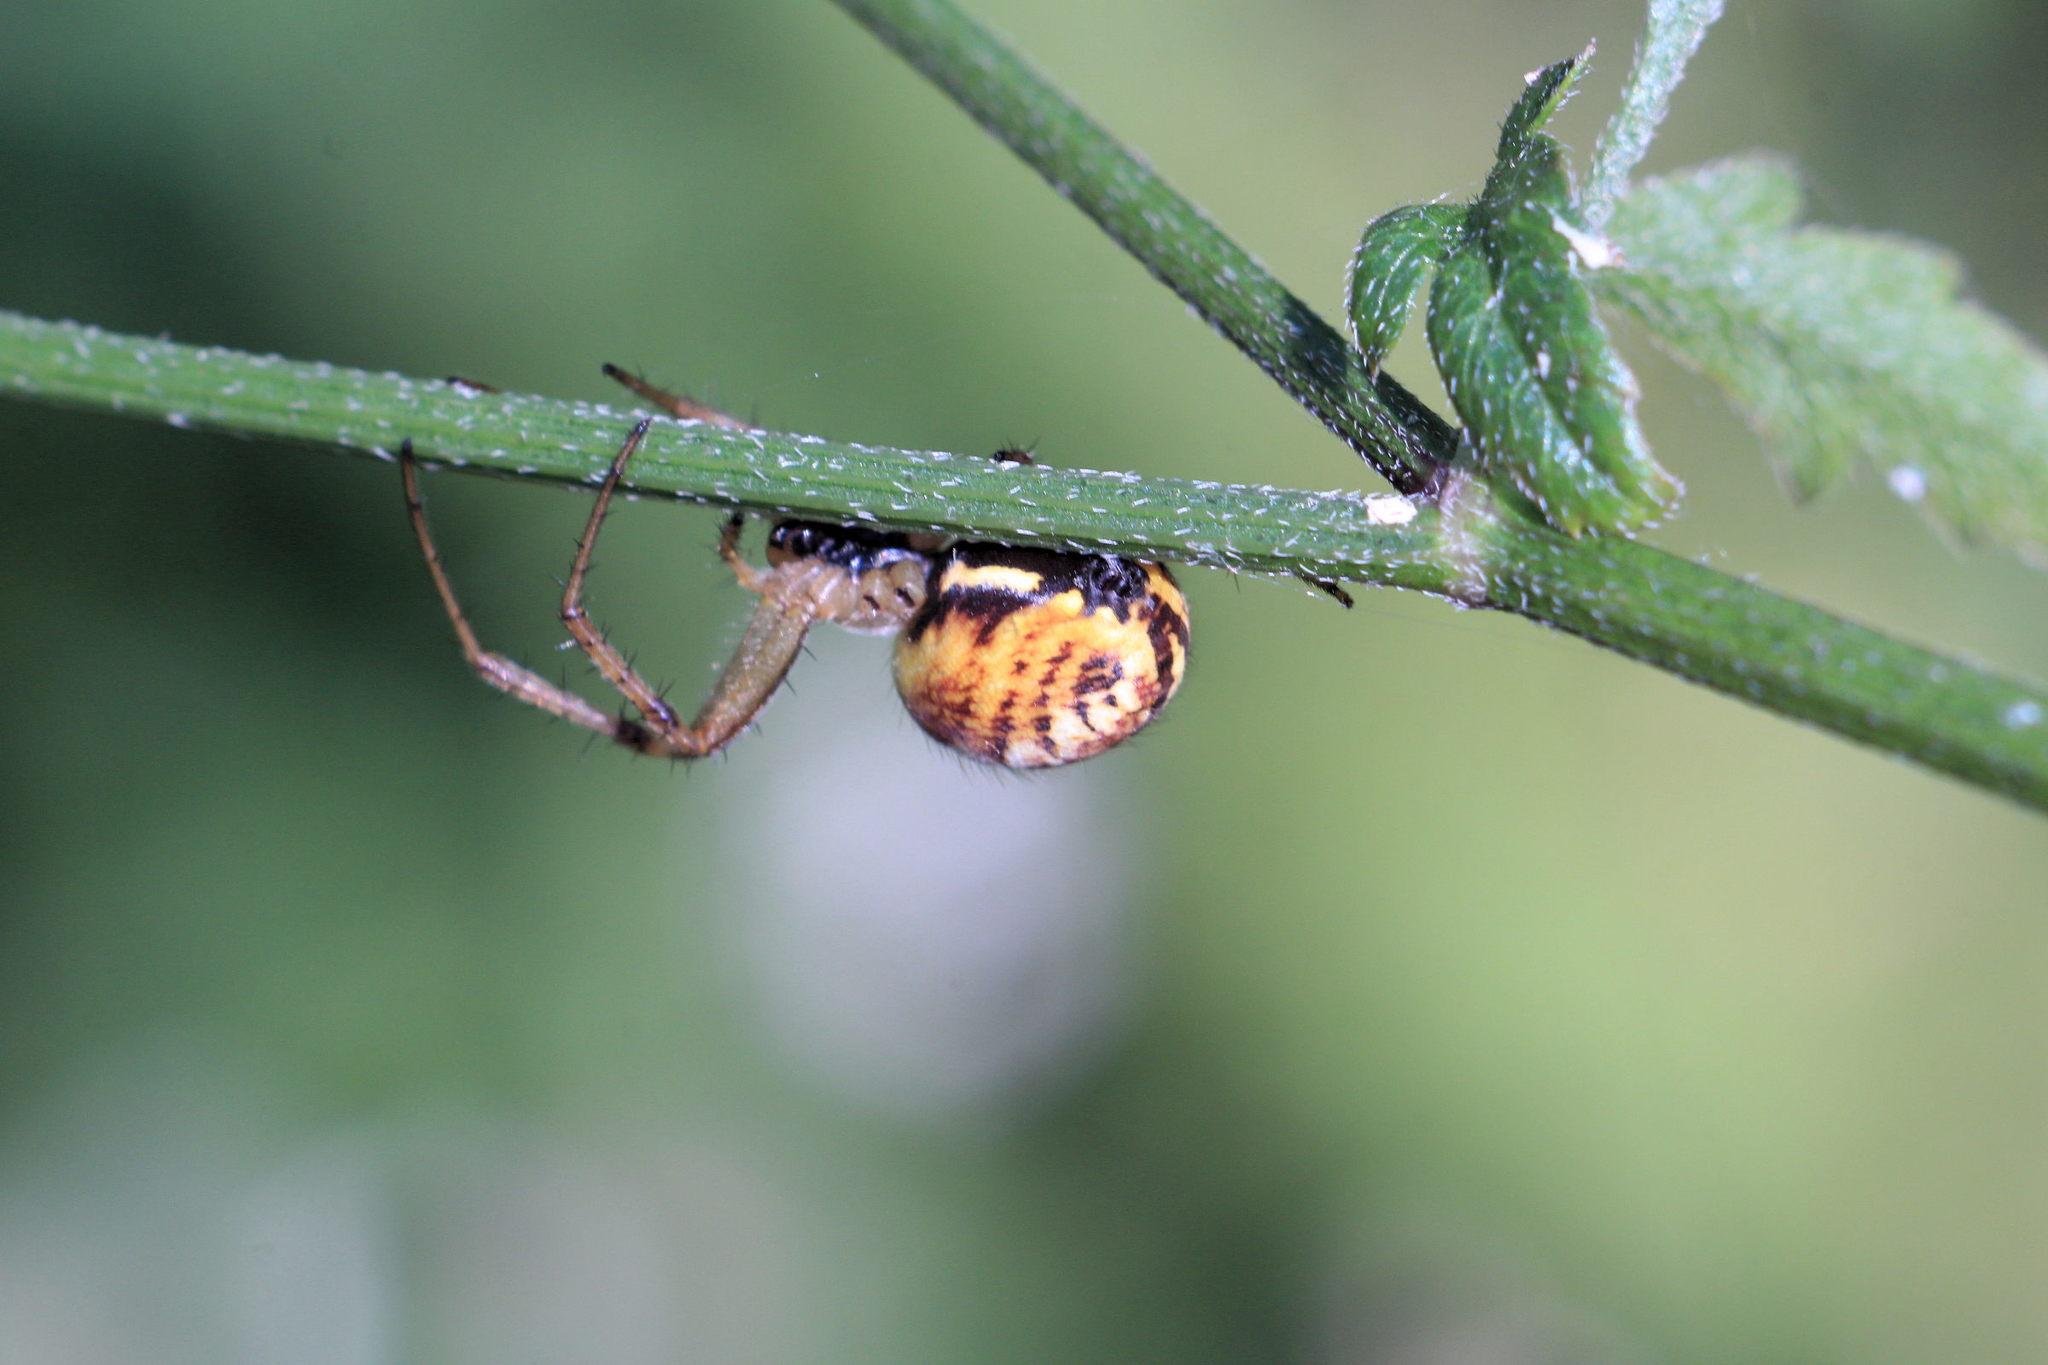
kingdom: Animalia
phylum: Arthropoda
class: Arachnida
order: Araneae
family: Araneidae
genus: Neoscona
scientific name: Neoscona adianta
